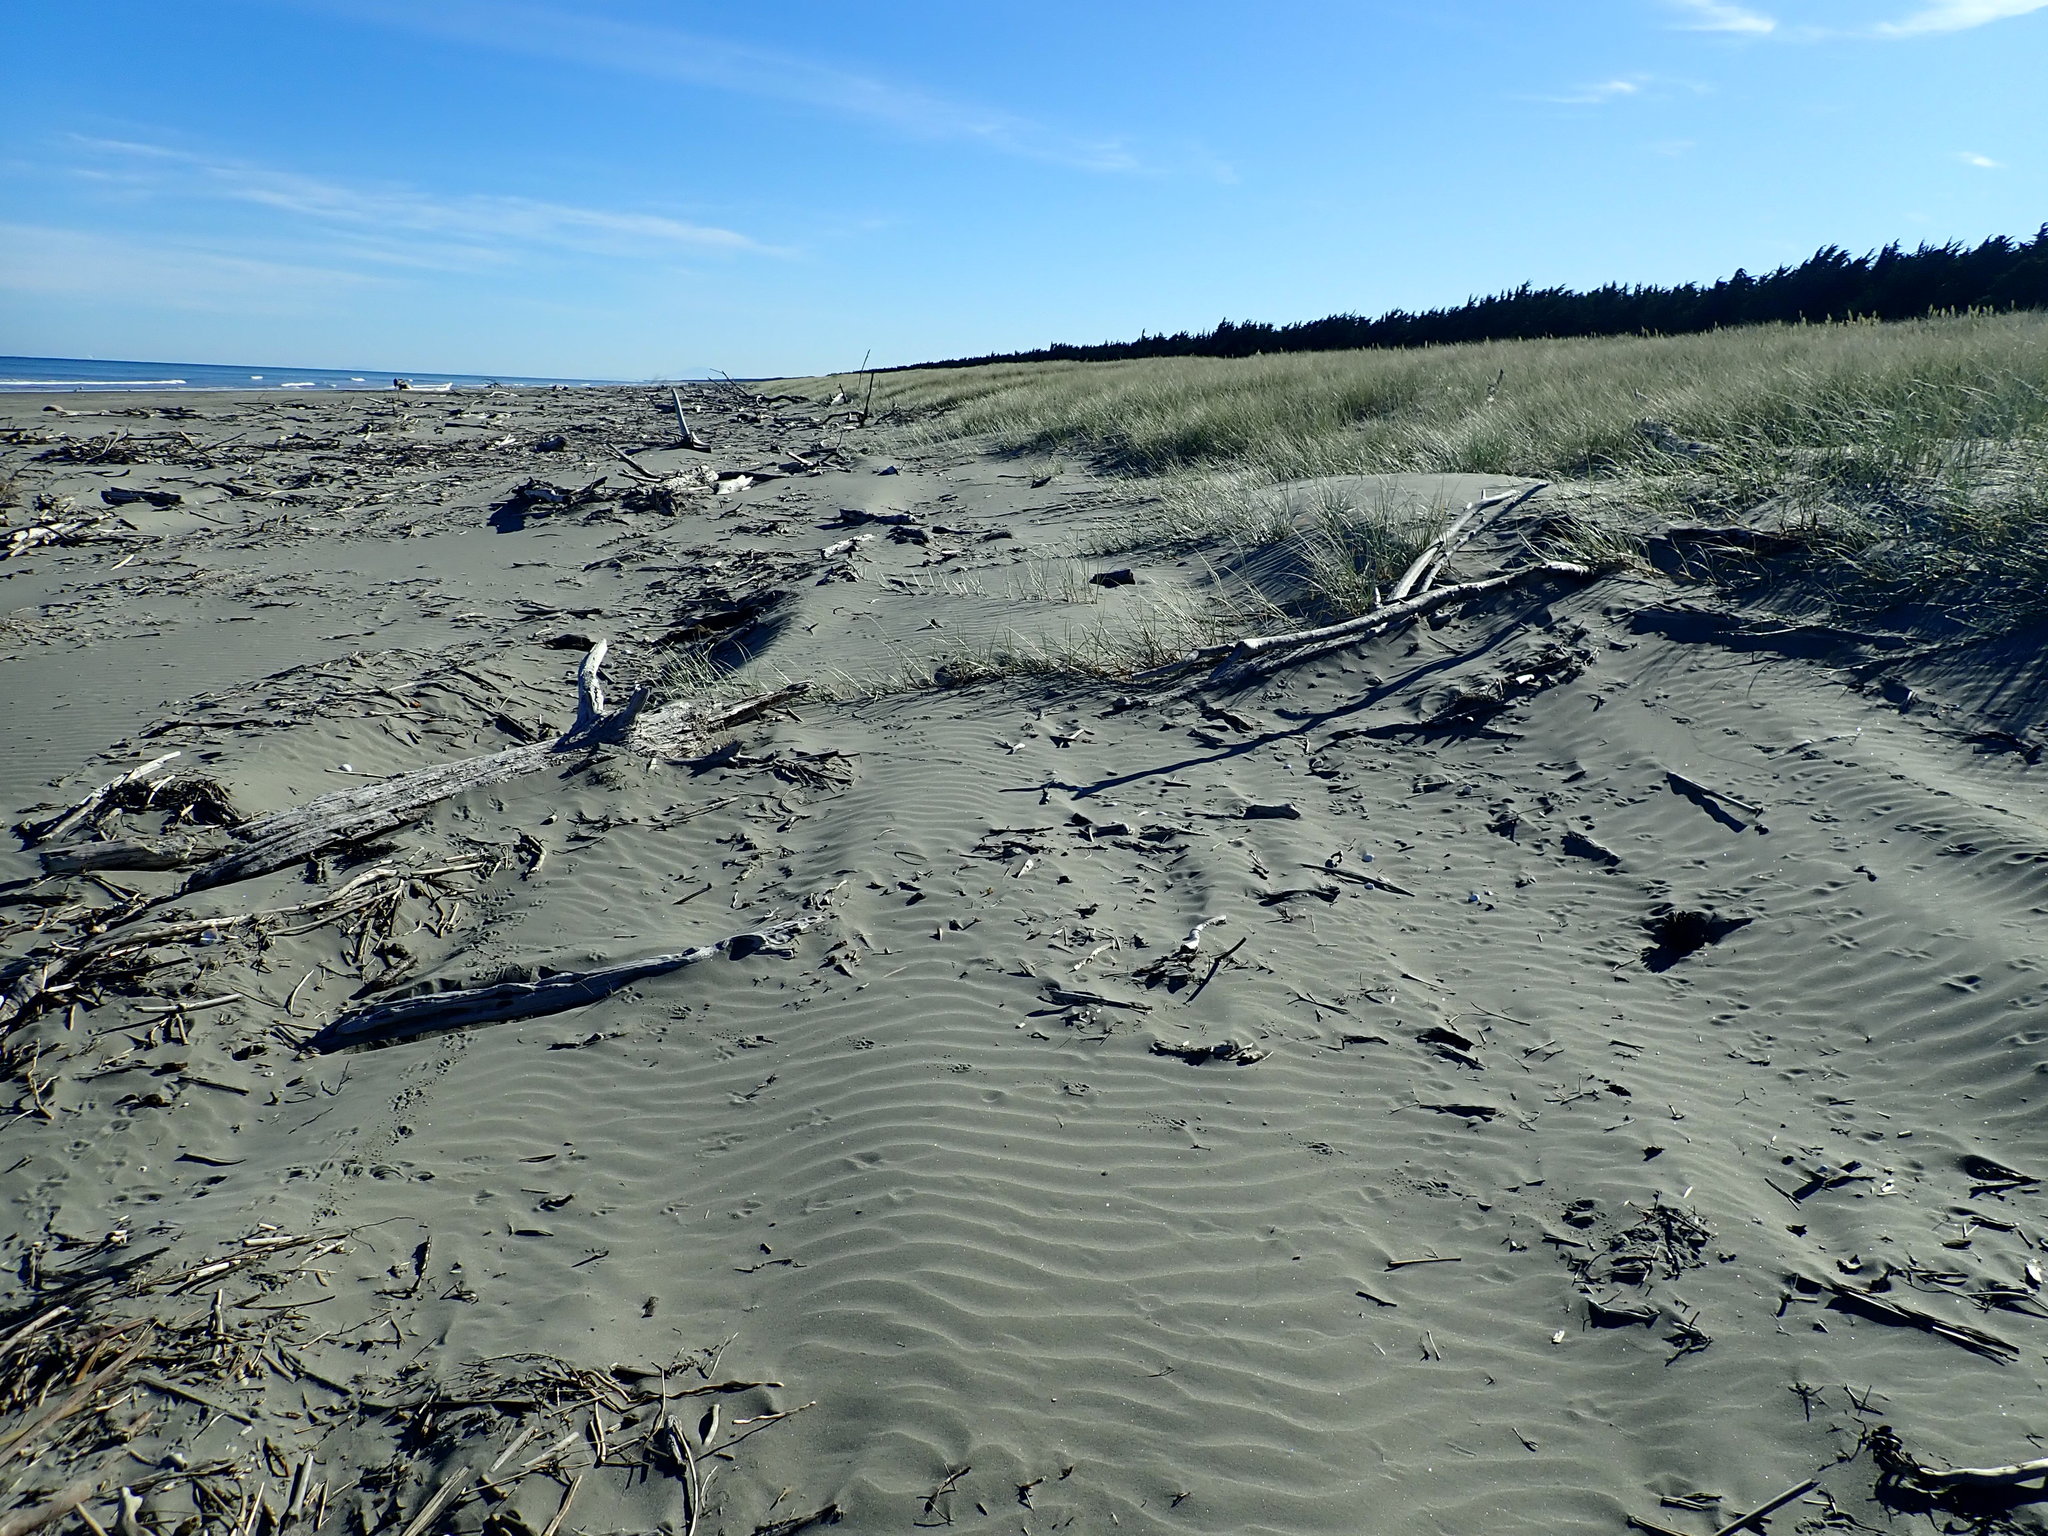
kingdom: Plantae
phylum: Tracheophyta
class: Liliopsida
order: Poales
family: Poaceae
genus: Spinifex
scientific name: Spinifex sericeus
